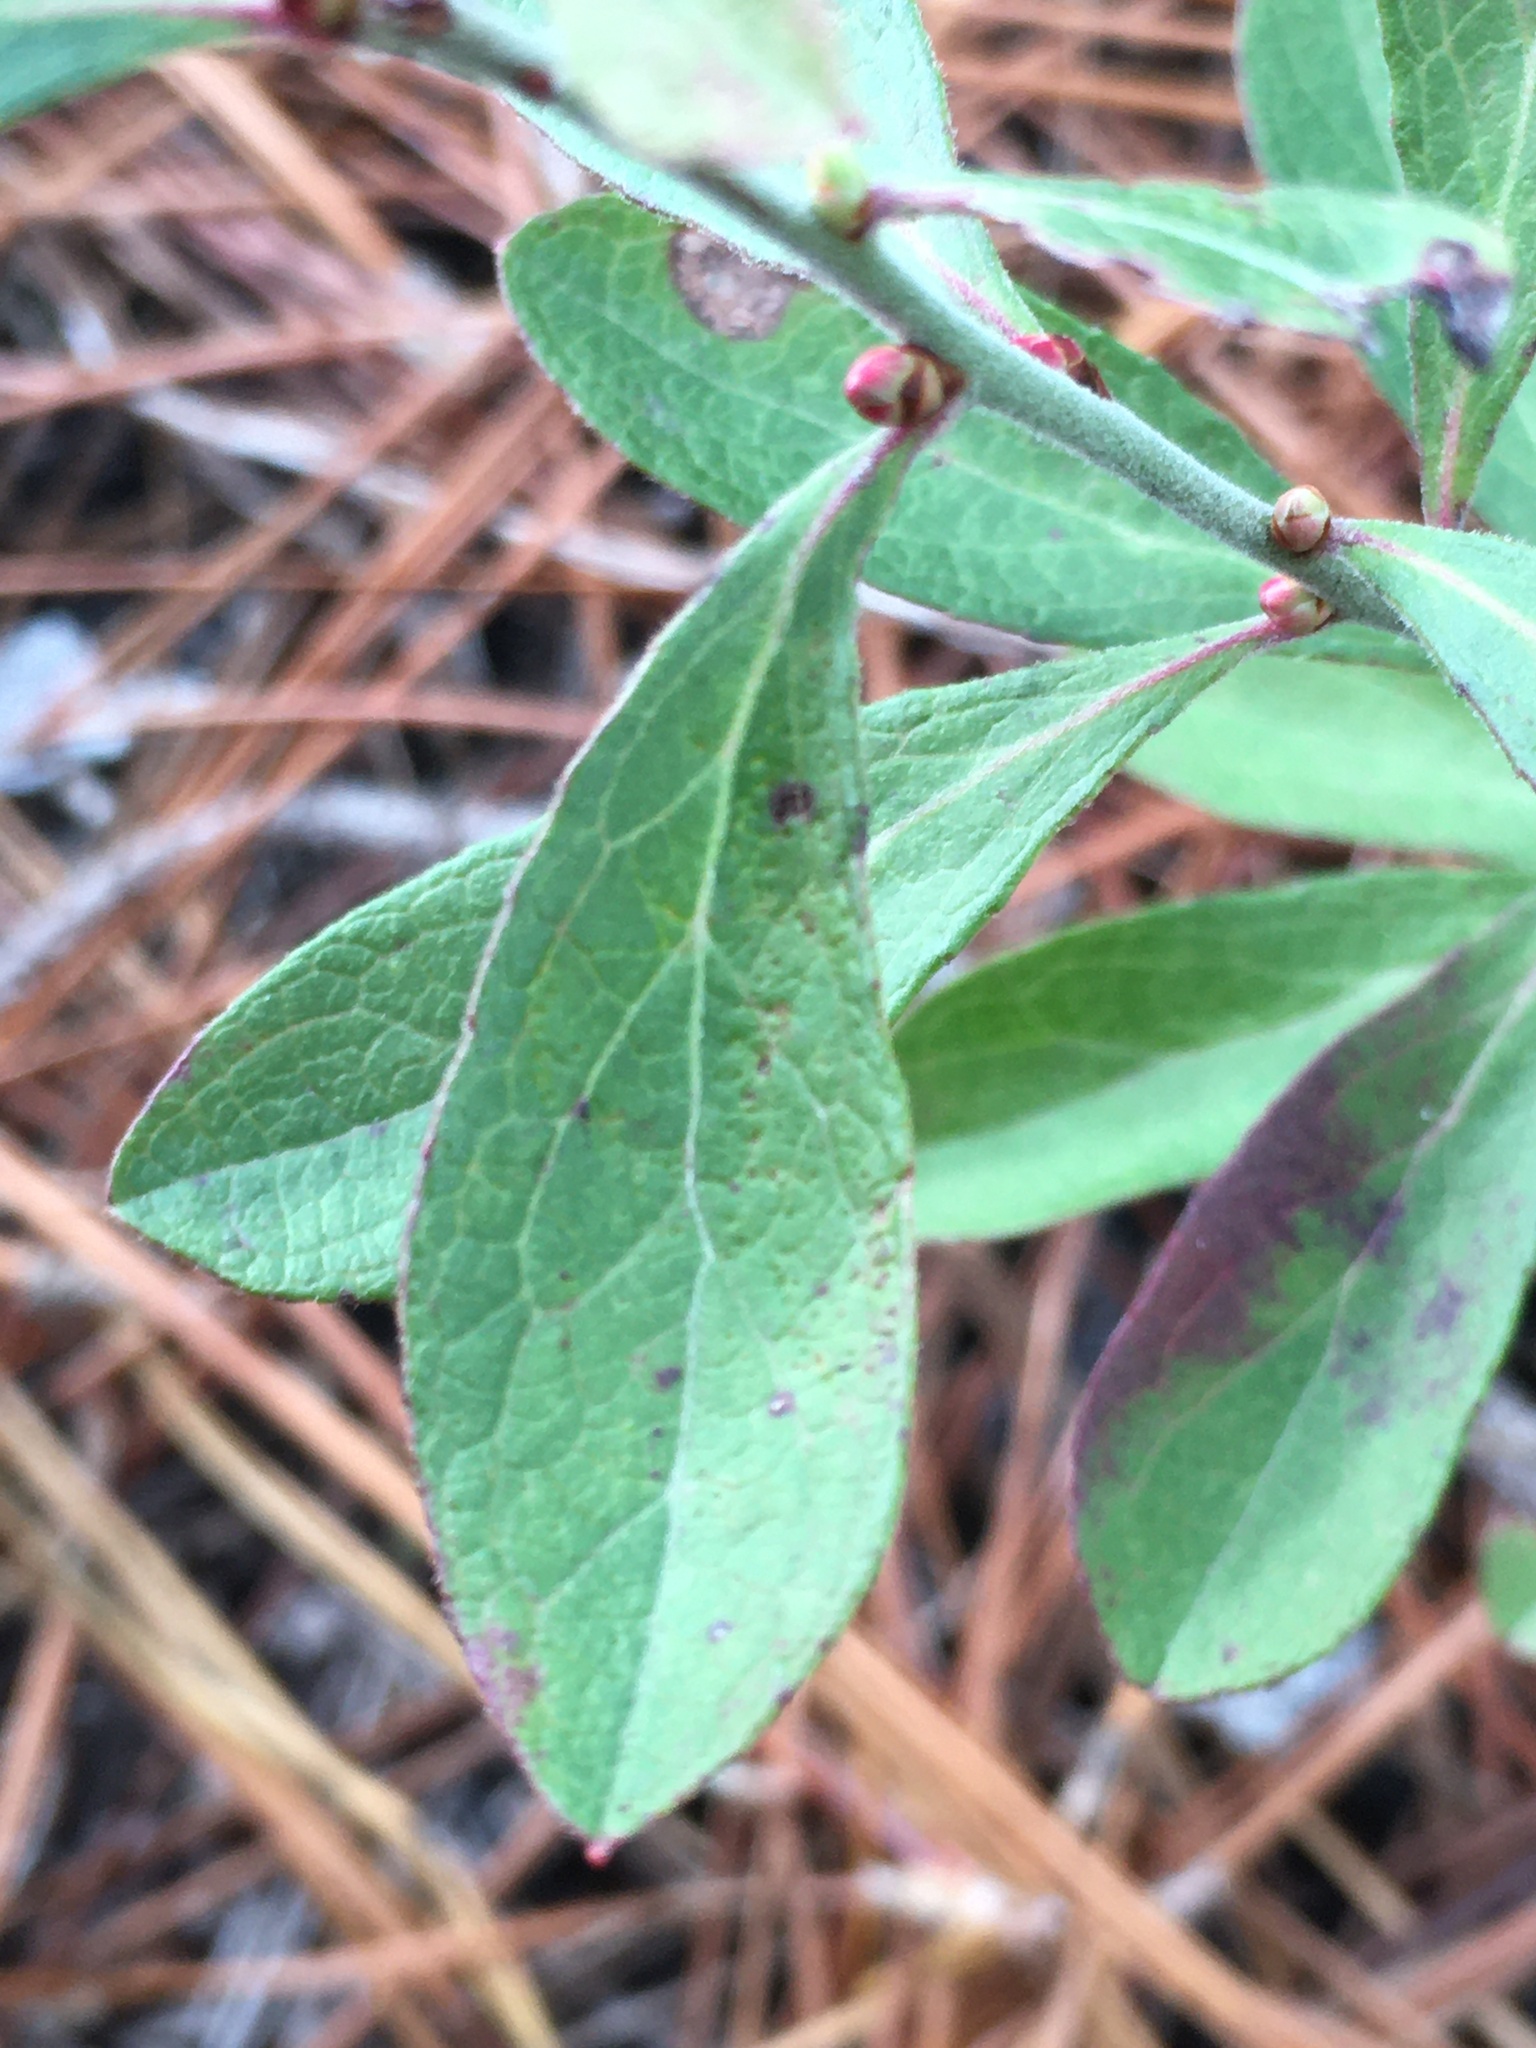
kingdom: Plantae
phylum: Tracheophyta
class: Magnoliopsida
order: Ericales
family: Ericaceae
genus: Vaccinium
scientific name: Vaccinium tenellum
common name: Southern blueberry
